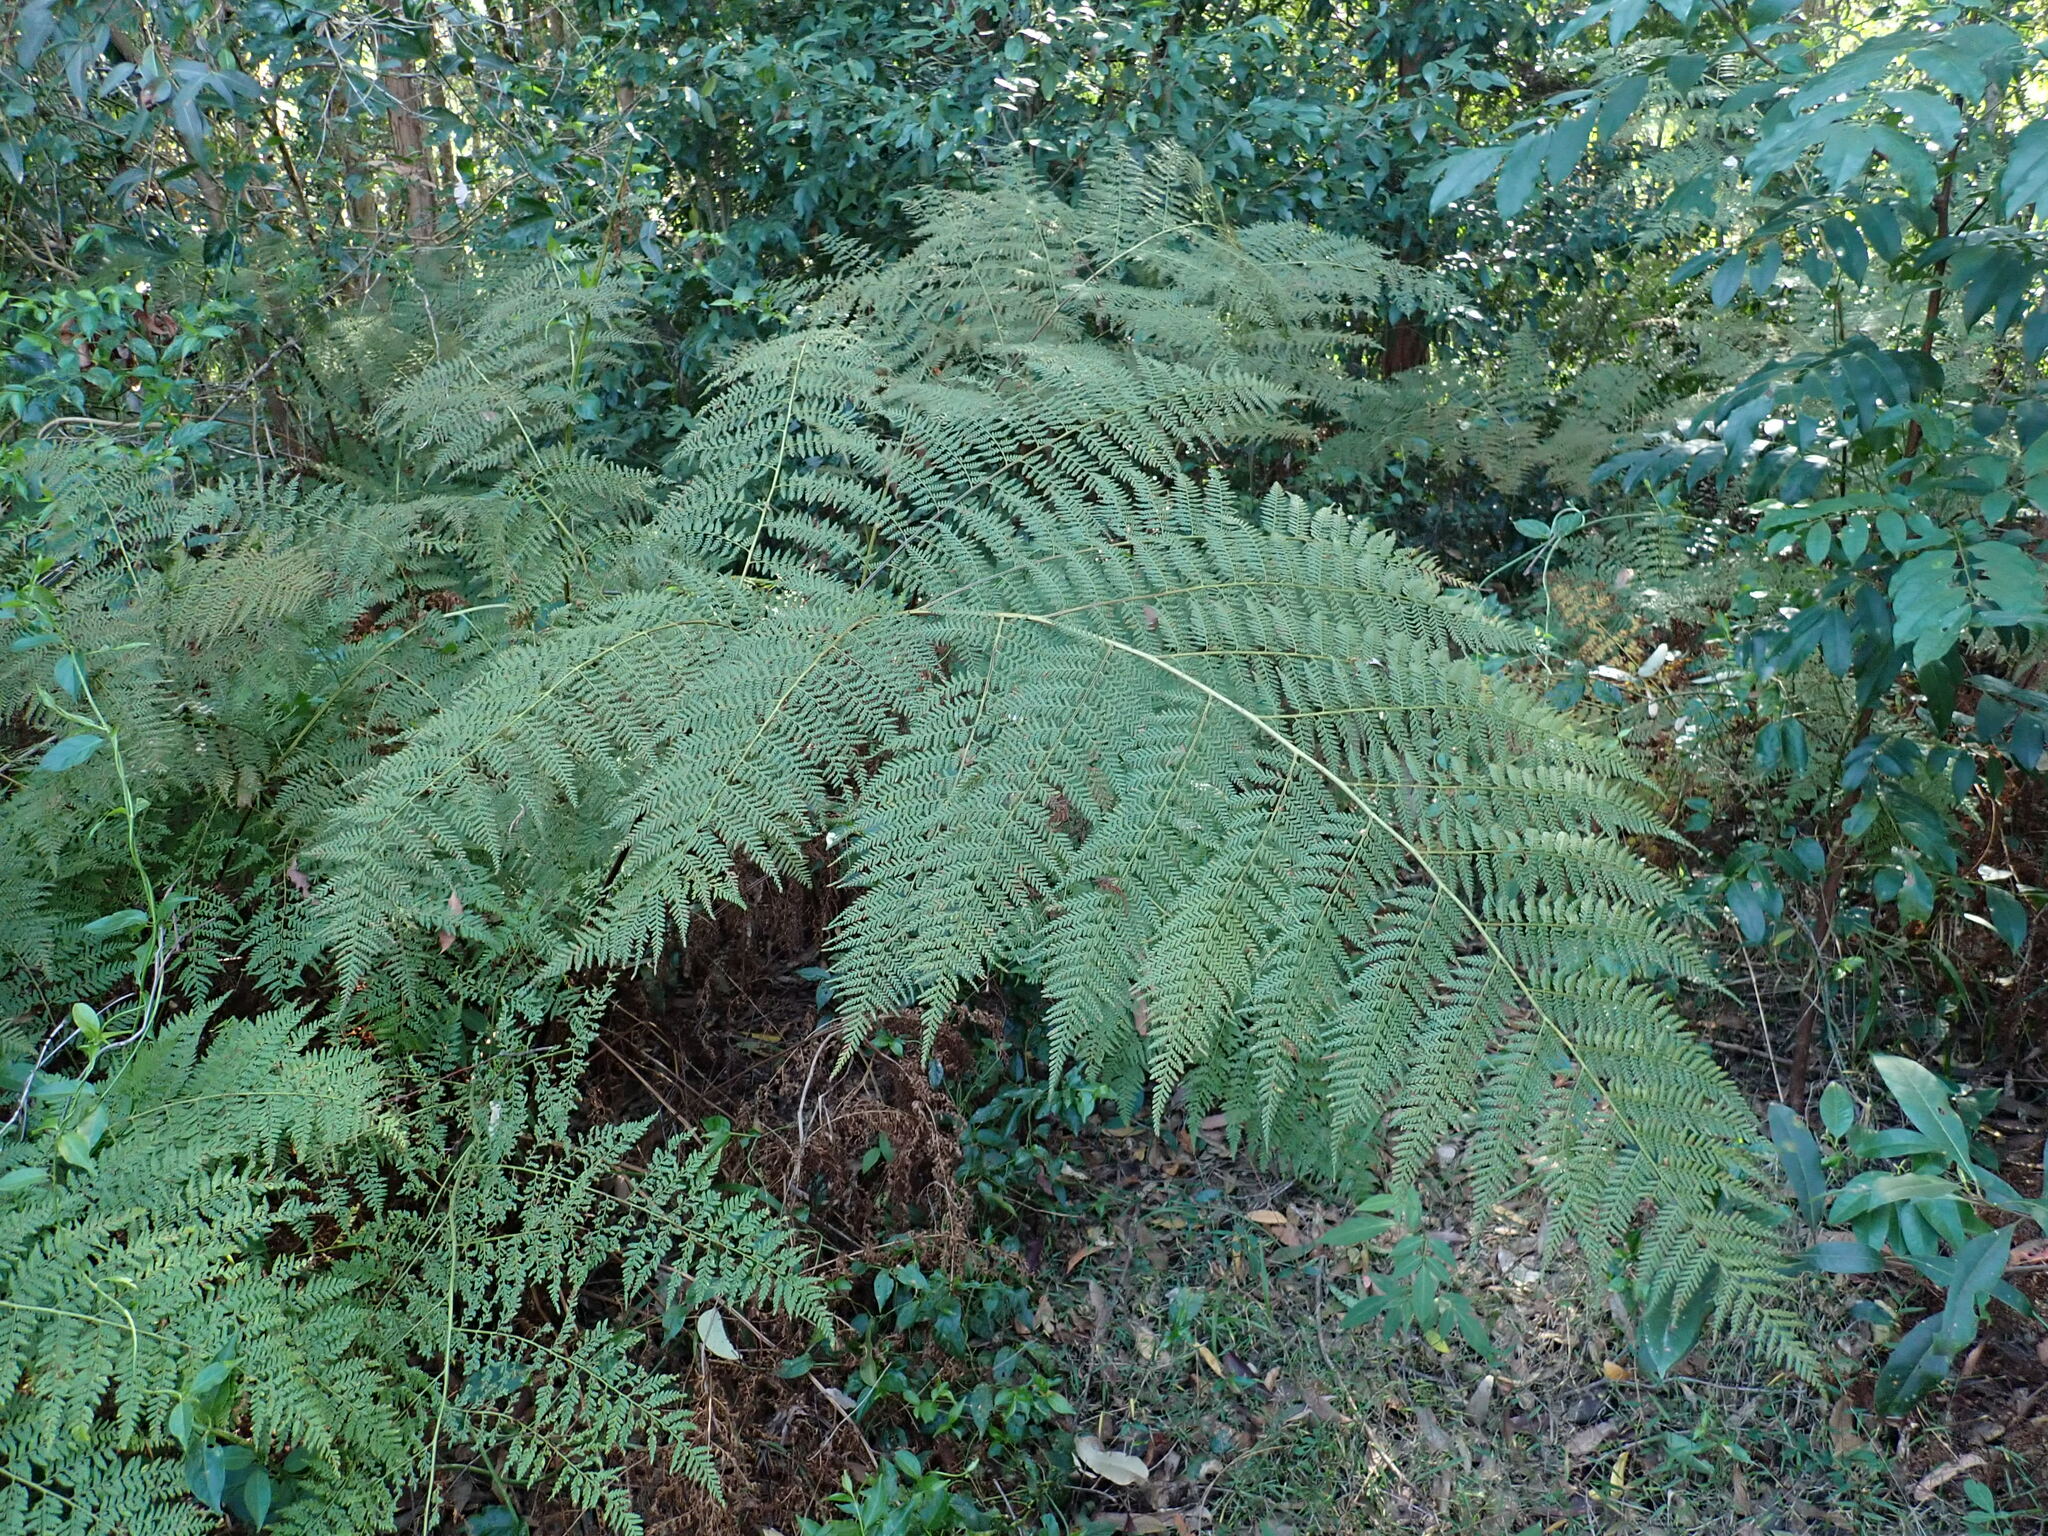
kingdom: Plantae
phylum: Tracheophyta
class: Polypodiopsida
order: Cyatheales
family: Dicksoniaceae
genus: Calochlaena
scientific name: Calochlaena dubia
